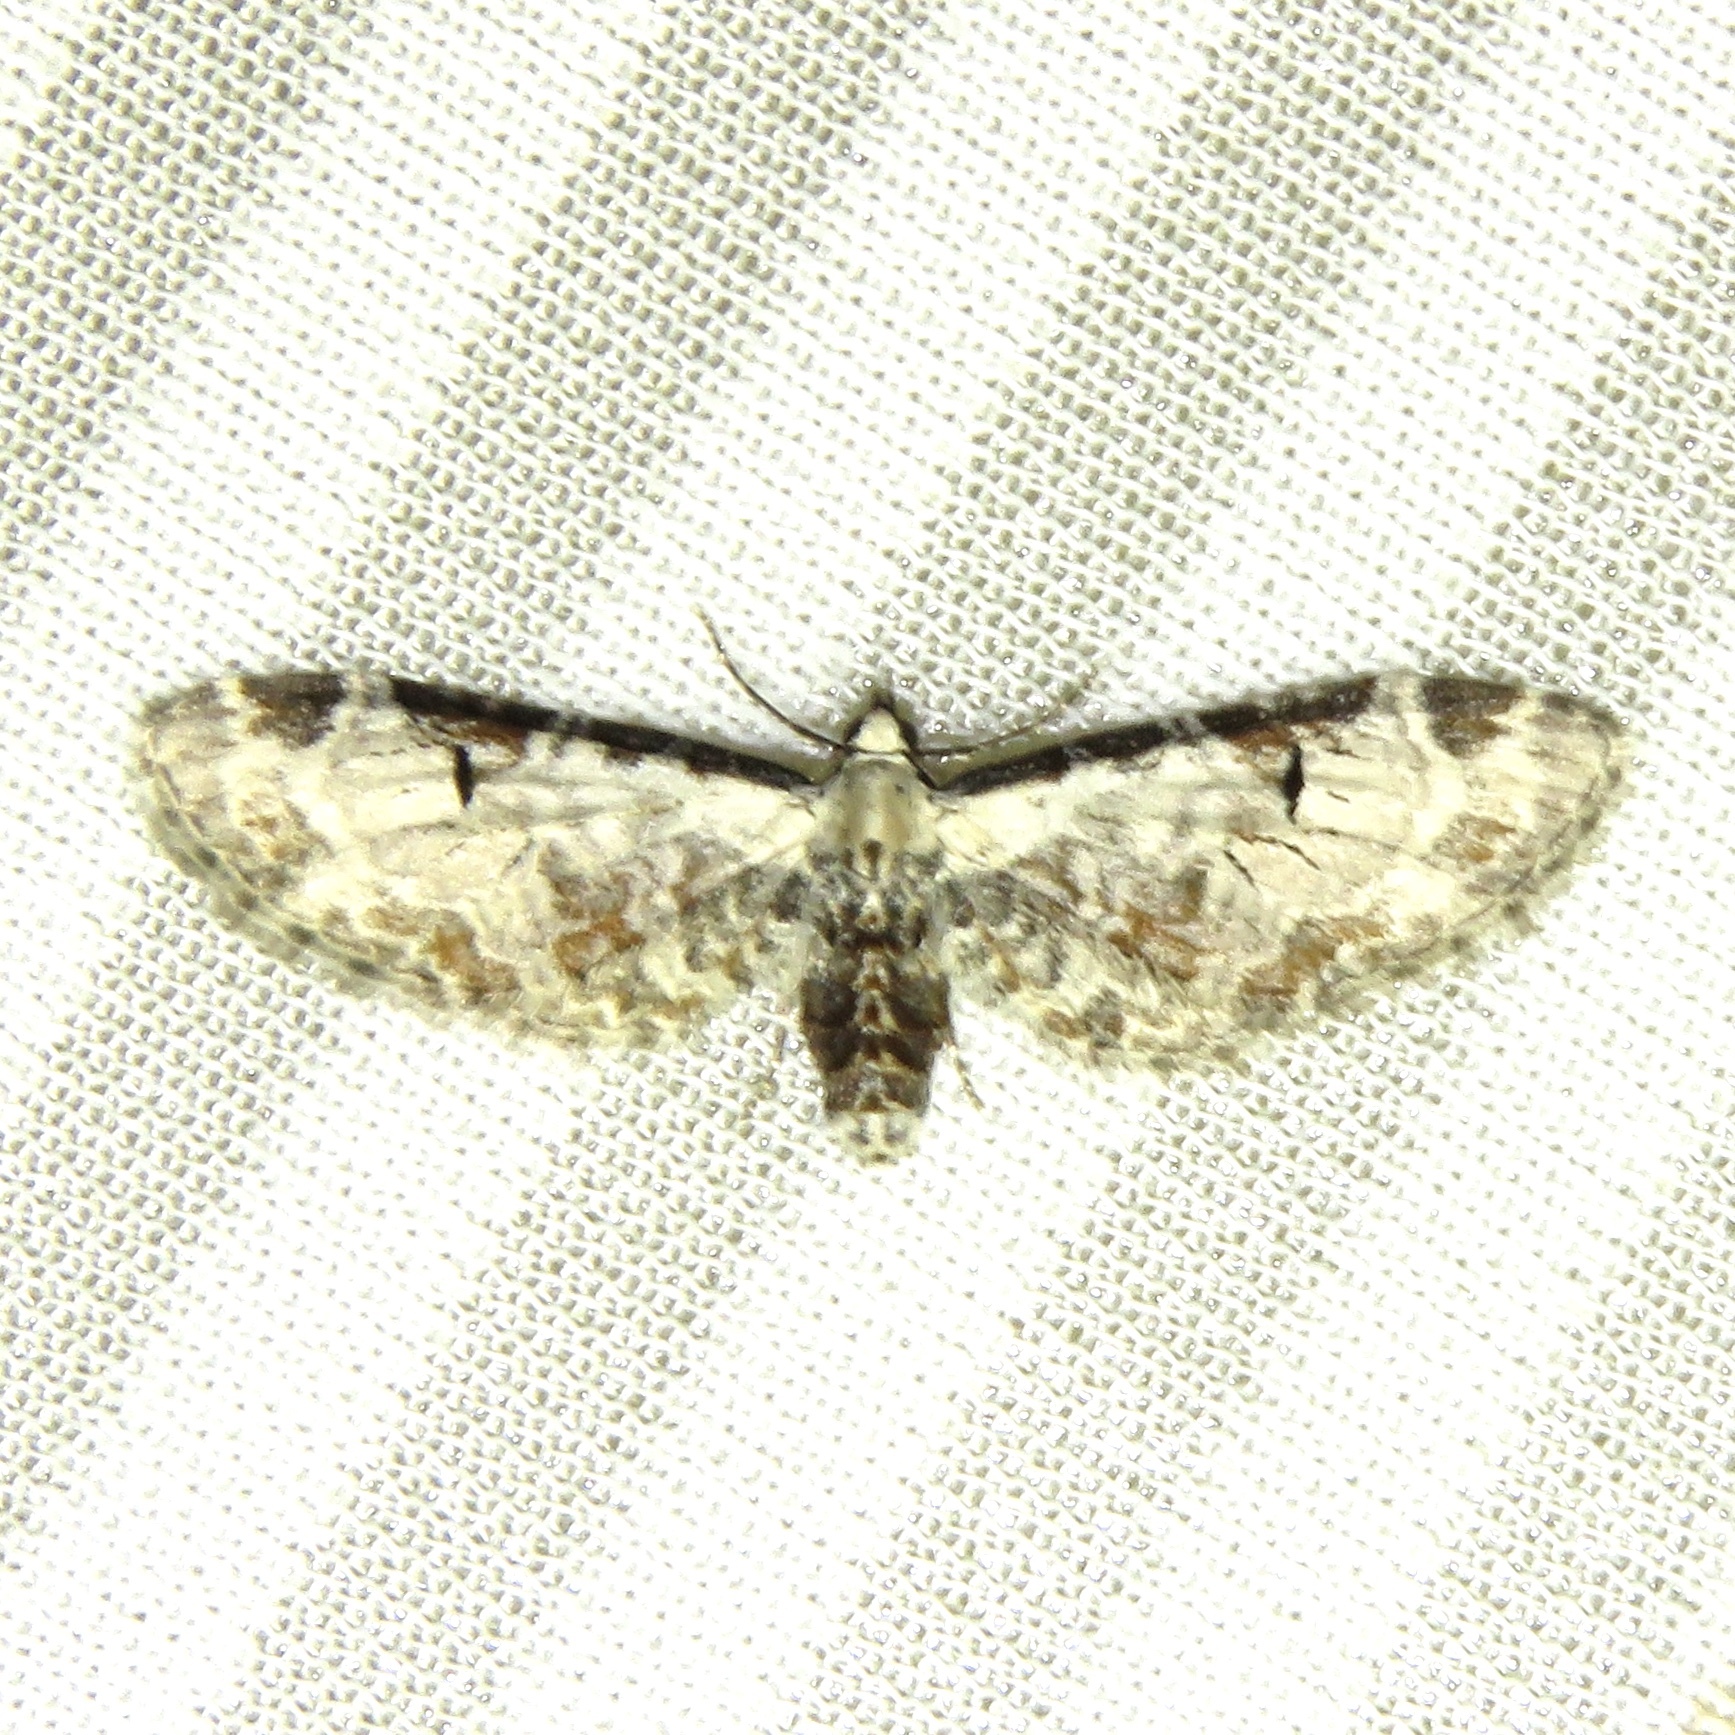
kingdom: Animalia
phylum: Arthropoda
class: Insecta
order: Lepidoptera
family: Geometridae
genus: Eupithecia
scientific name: Eupithecia ravocostaliata
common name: Great varigated pug
